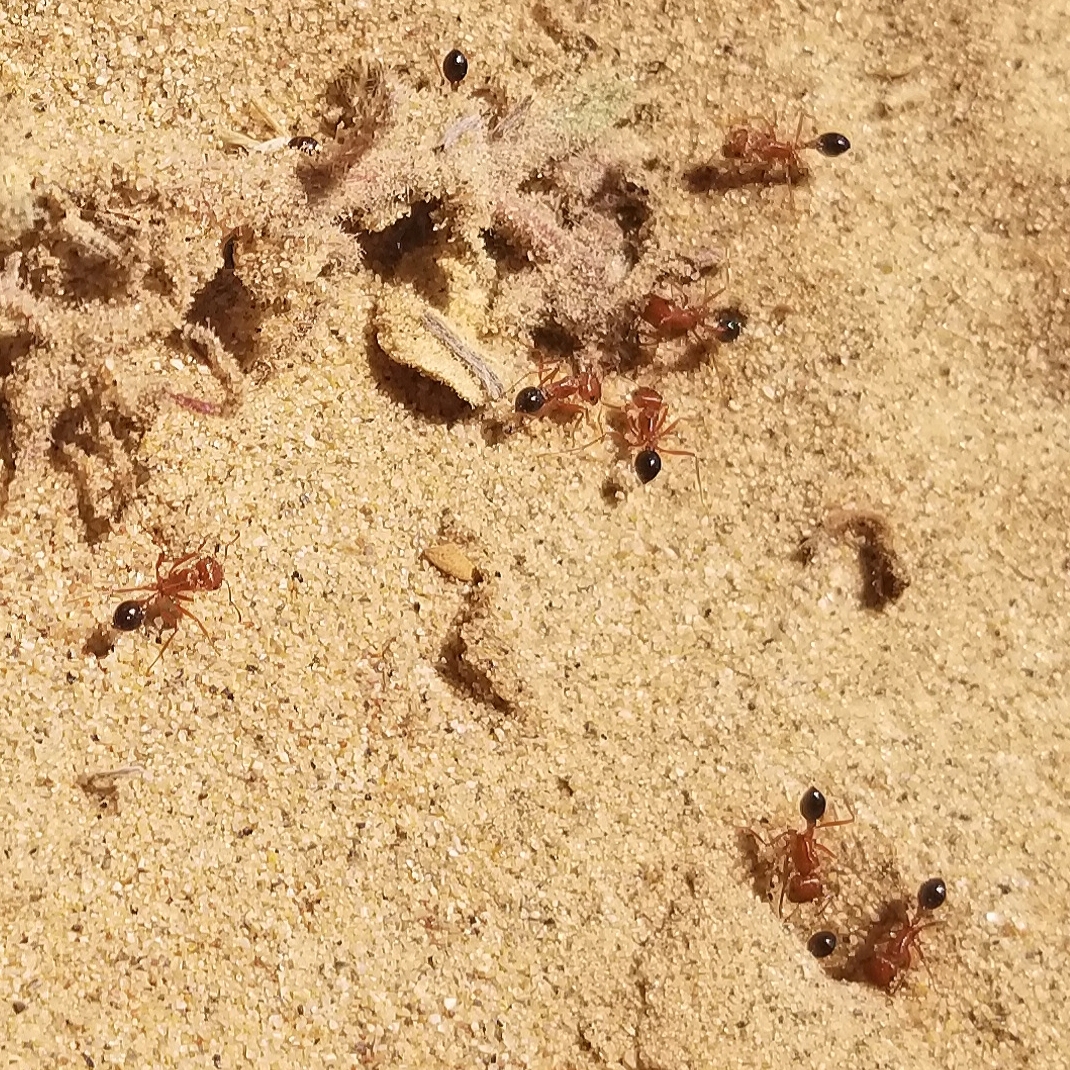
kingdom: Animalia
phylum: Arthropoda
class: Insecta
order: Hymenoptera
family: Formicidae
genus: Pogonomyrmex
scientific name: Pogonomyrmex californicus
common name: California harvester ant
